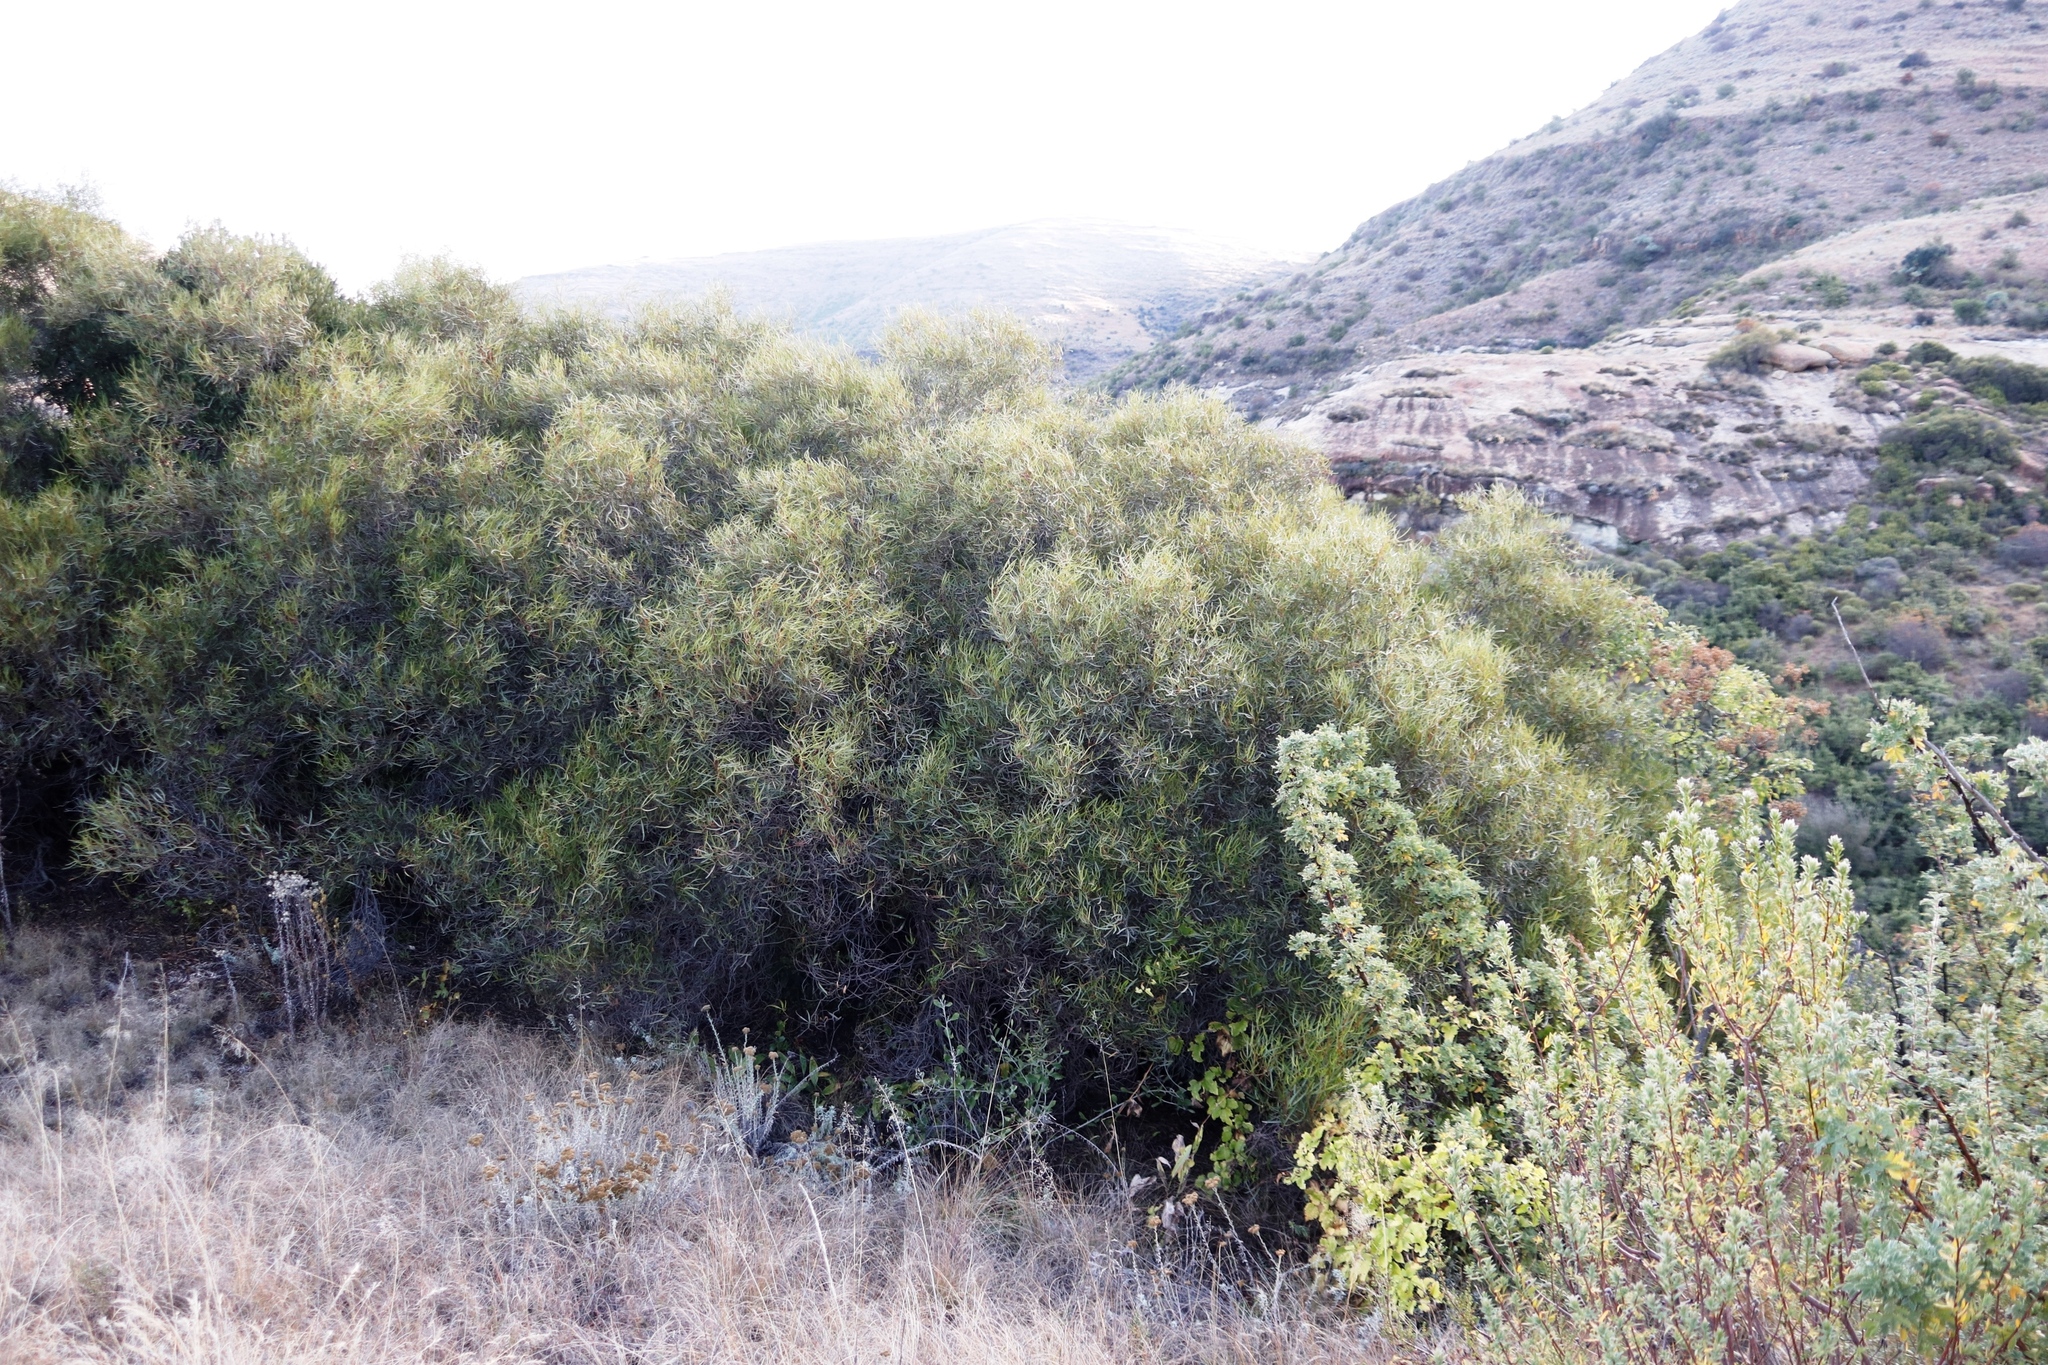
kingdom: Plantae
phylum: Tracheophyta
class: Magnoliopsida
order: Sapindales
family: Anacardiaceae
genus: Searsia
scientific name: Searsia erosa
